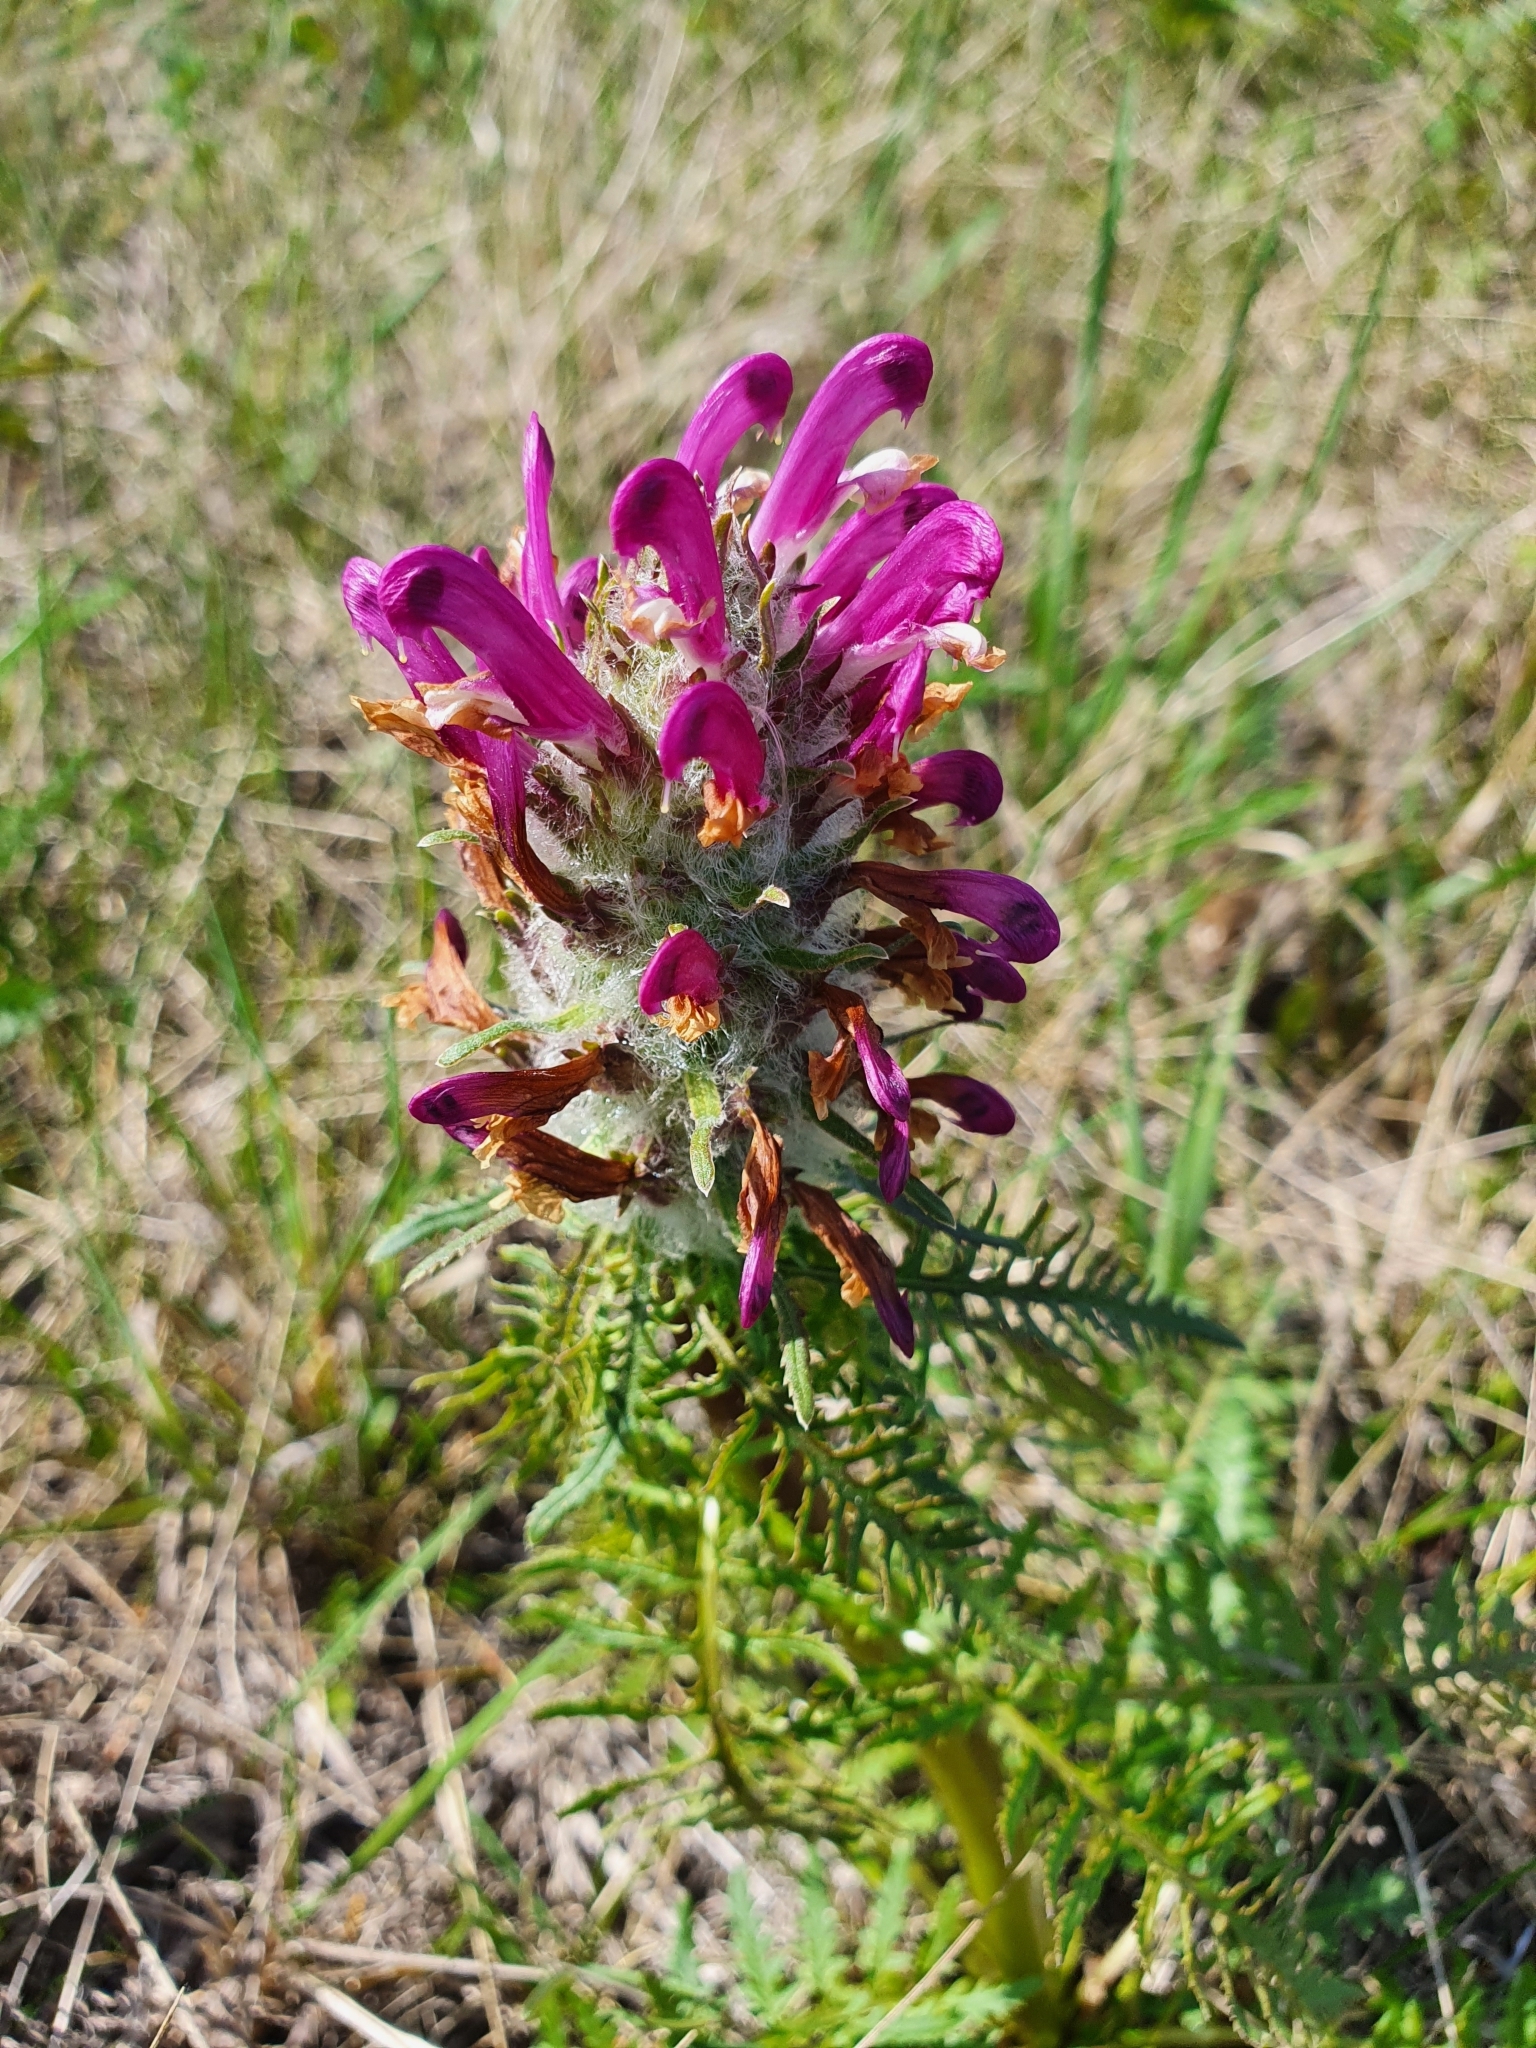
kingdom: Plantae
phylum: Tracheophyta
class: Magnoliopsida
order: Lamiales
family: Orobanchaceae
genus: Pedicularis
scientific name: Pedicularis dasystachys
